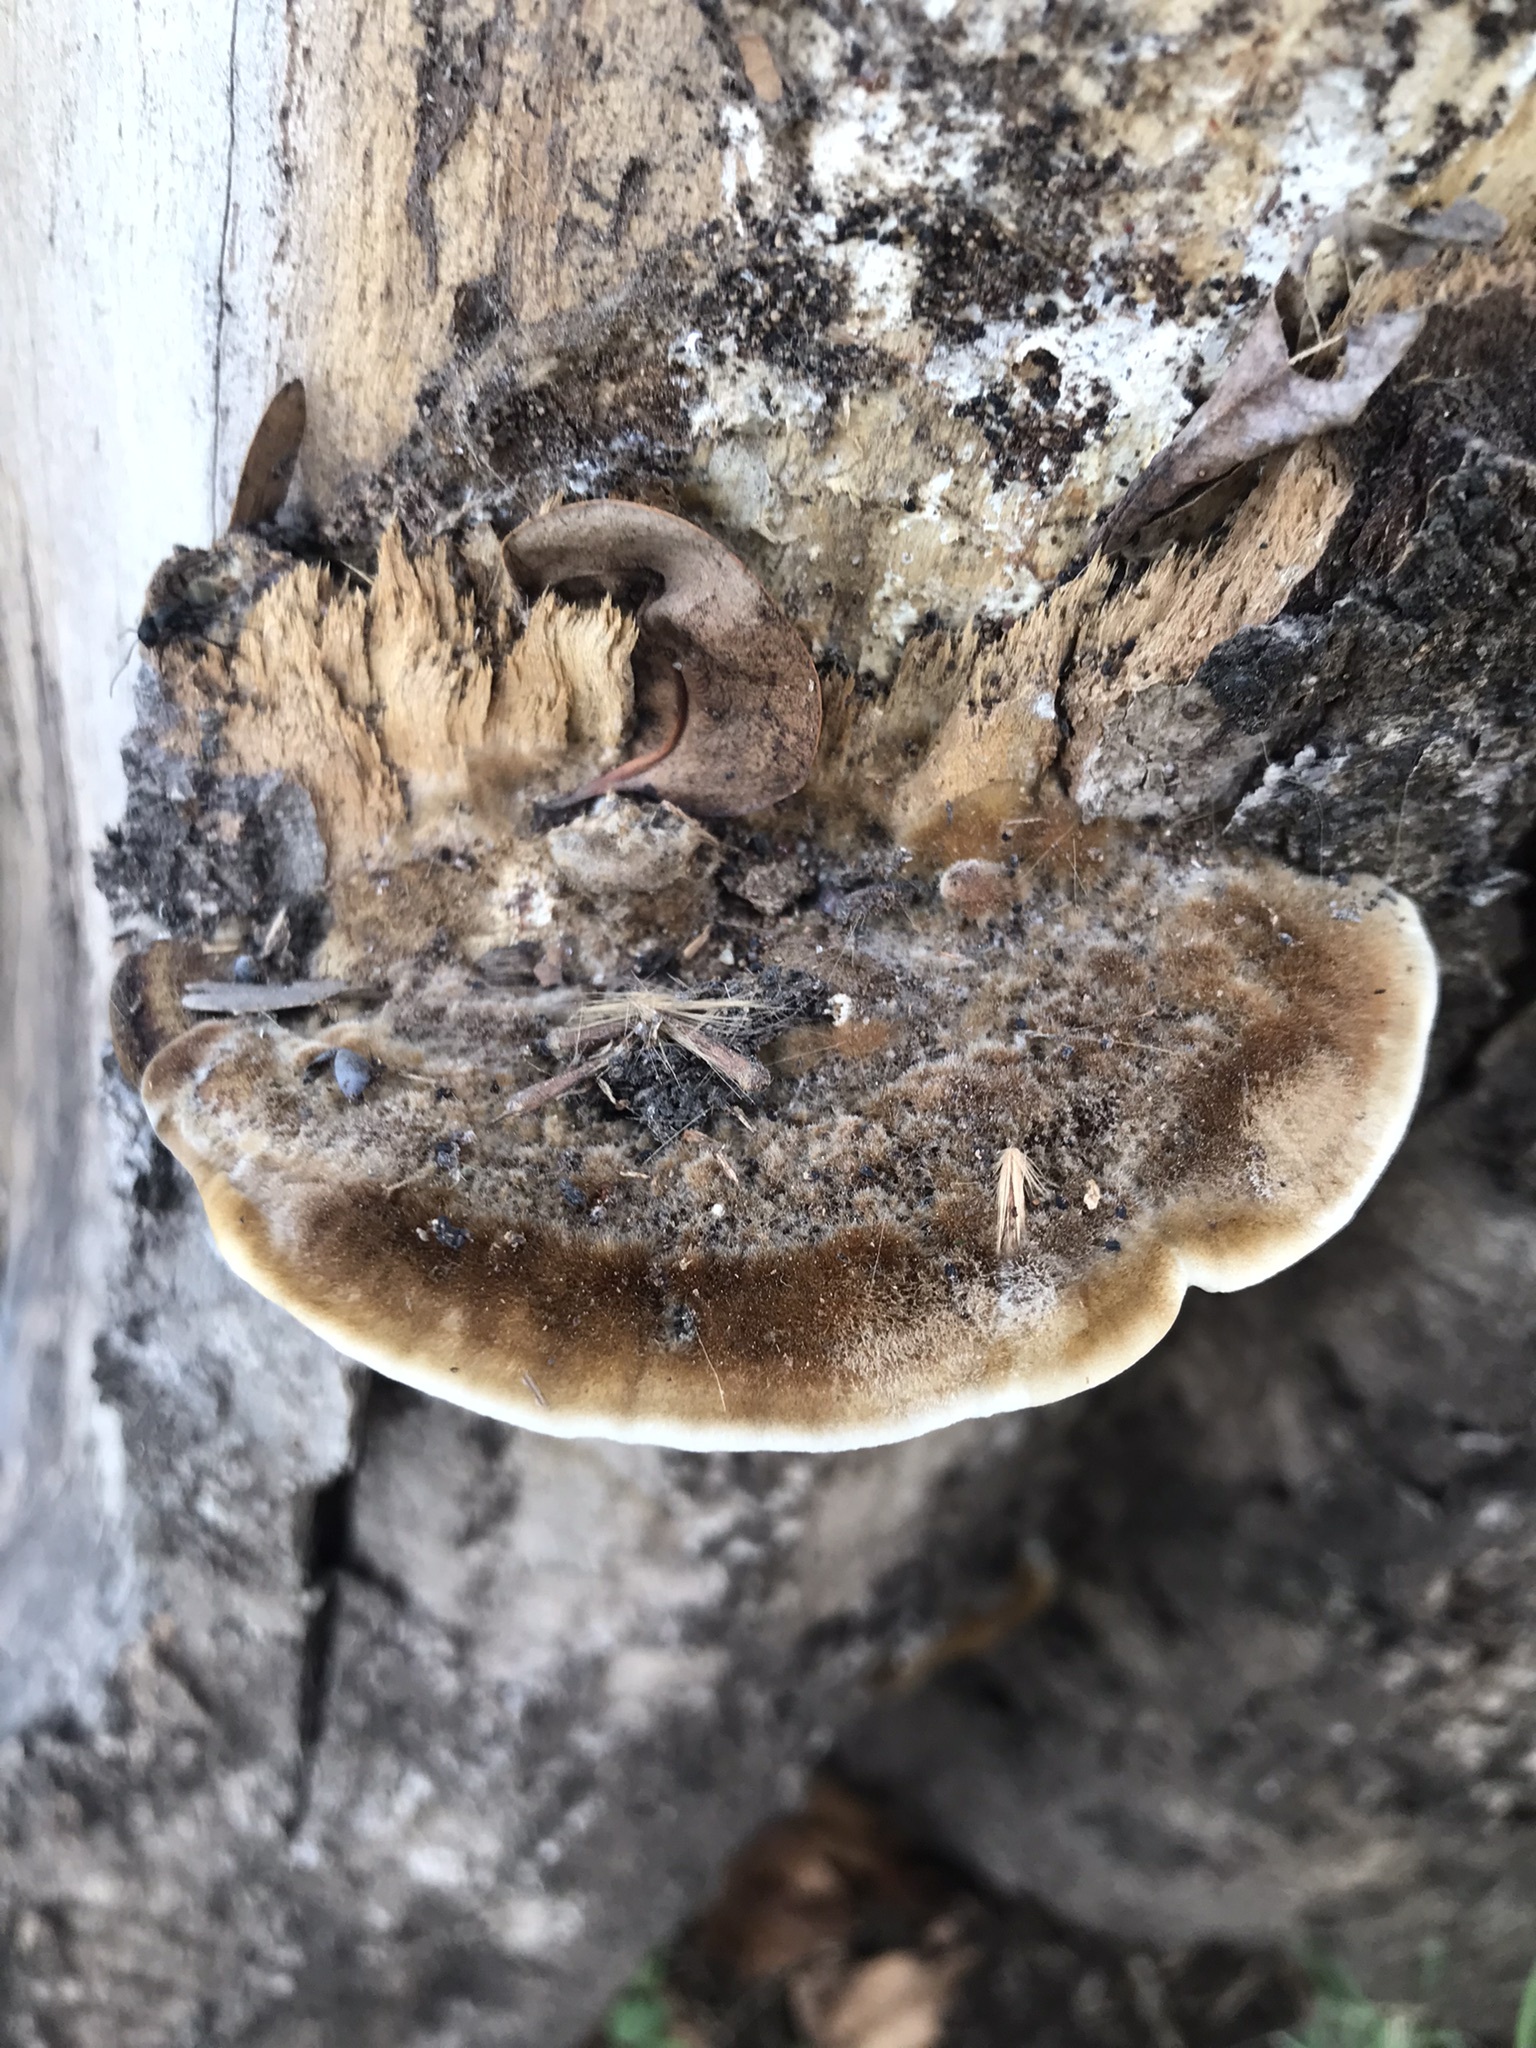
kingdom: Fungi
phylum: Basidiomycota
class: Agaricomycetes
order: Polyporales
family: Polyporaceae
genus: Coriolopsis
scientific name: Coriolopsis gallica
